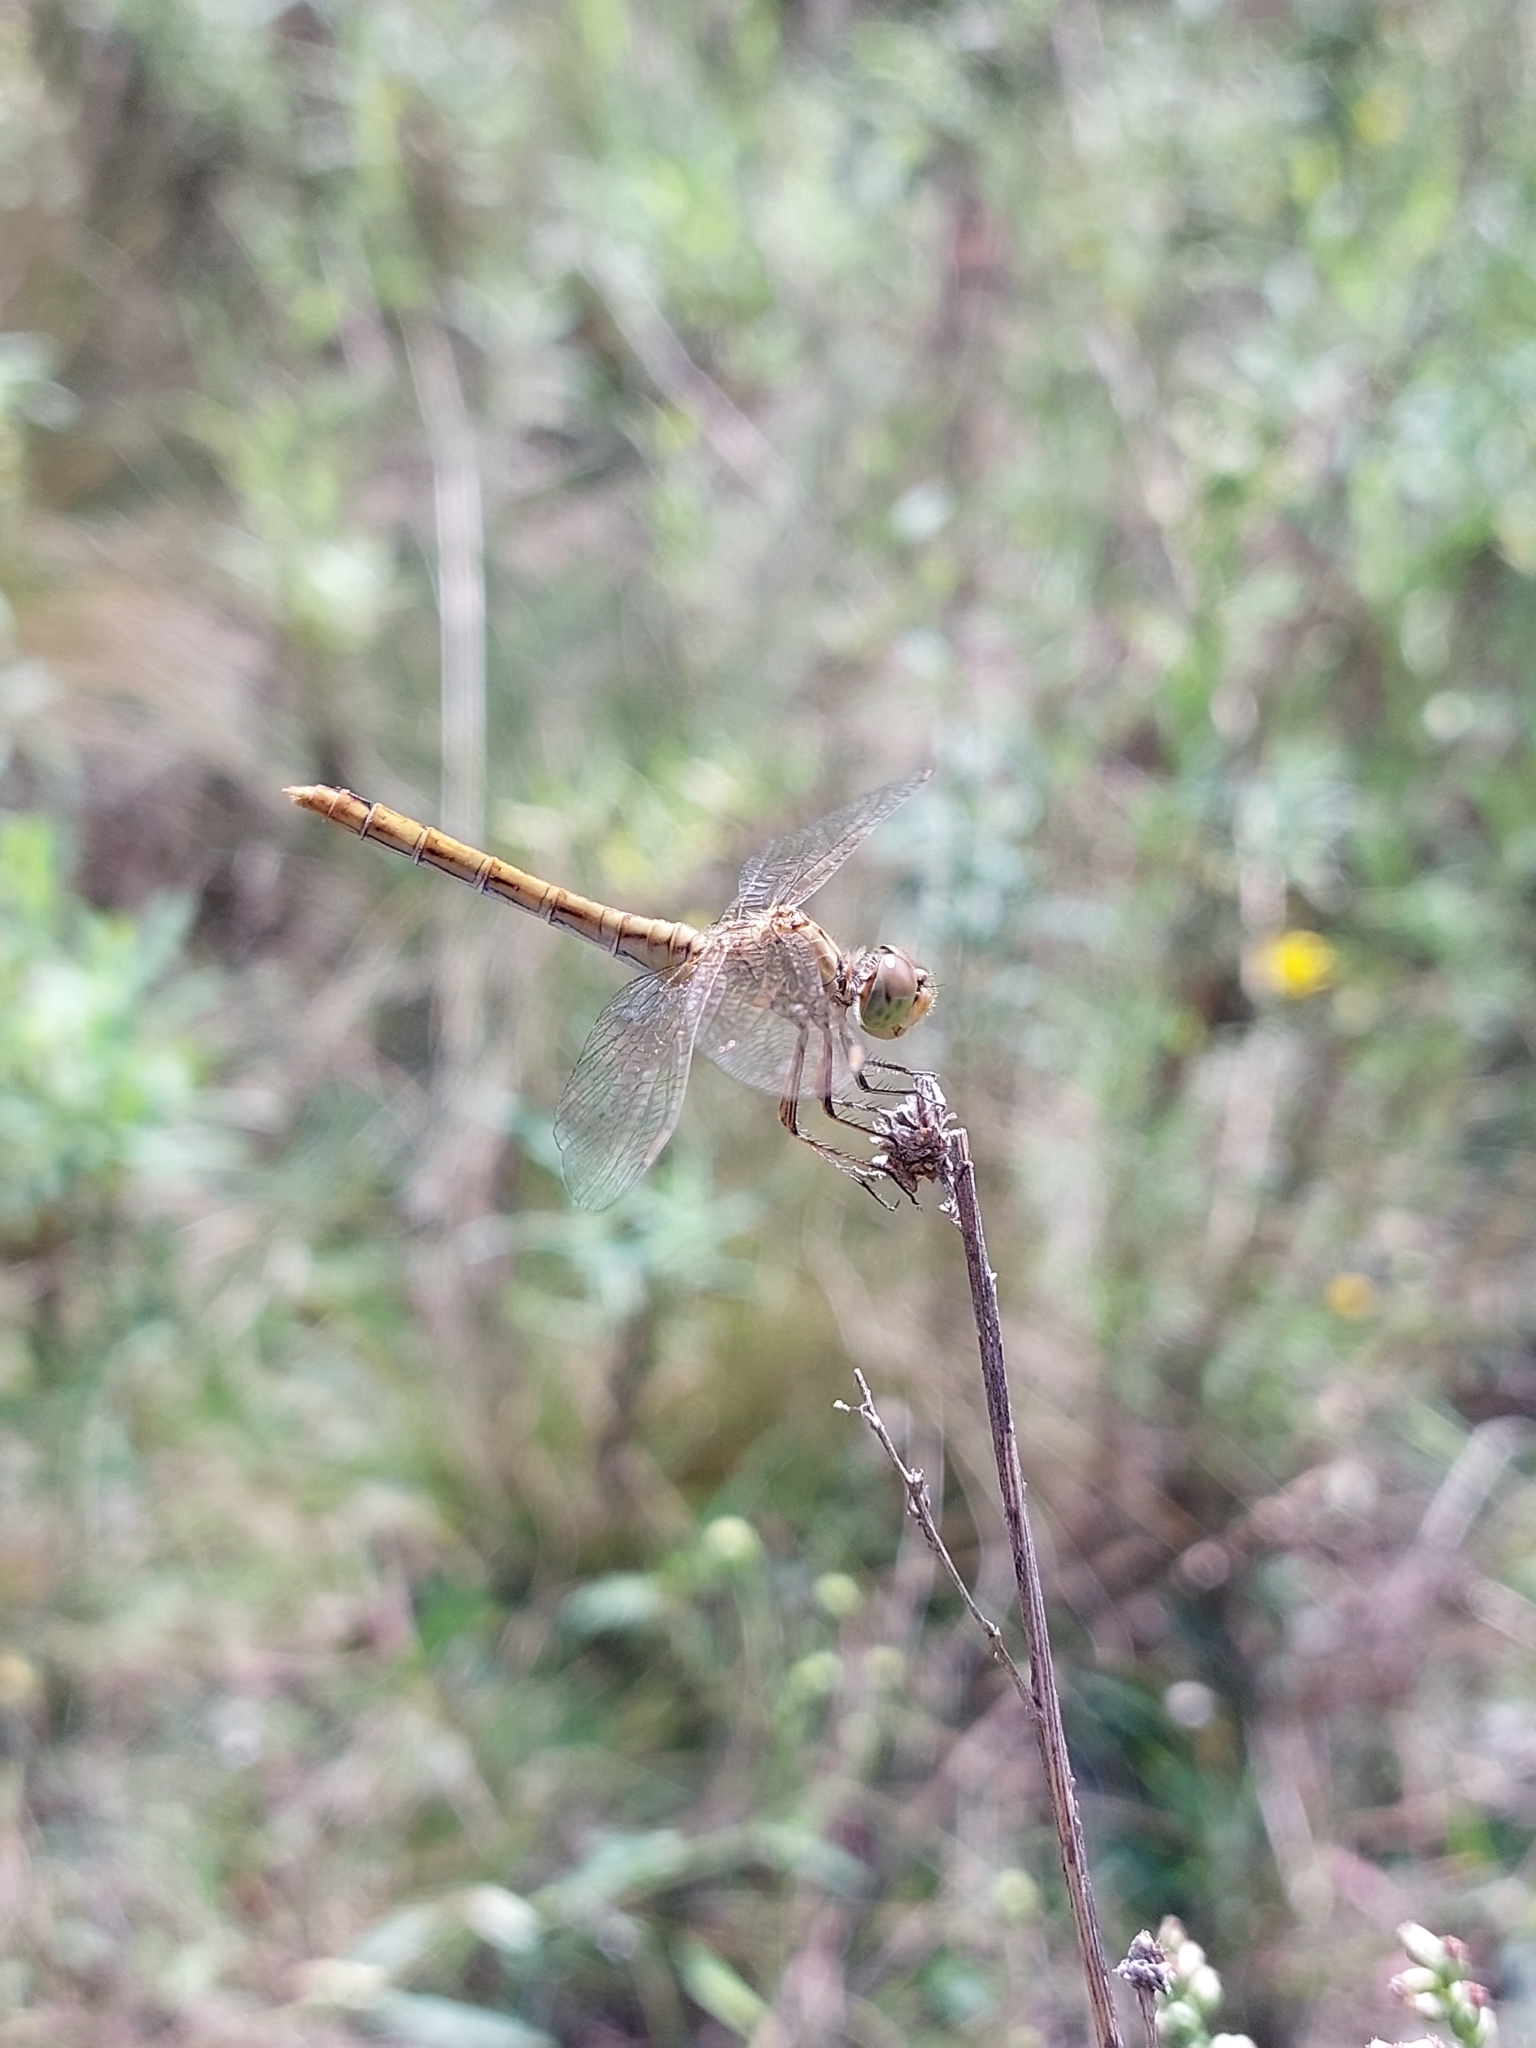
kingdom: Animalia
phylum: Arthropoda
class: Insecta
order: Odonata
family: Libellulidae
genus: Sympetrum
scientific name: Sympetrum meridionale
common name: Southern darter
